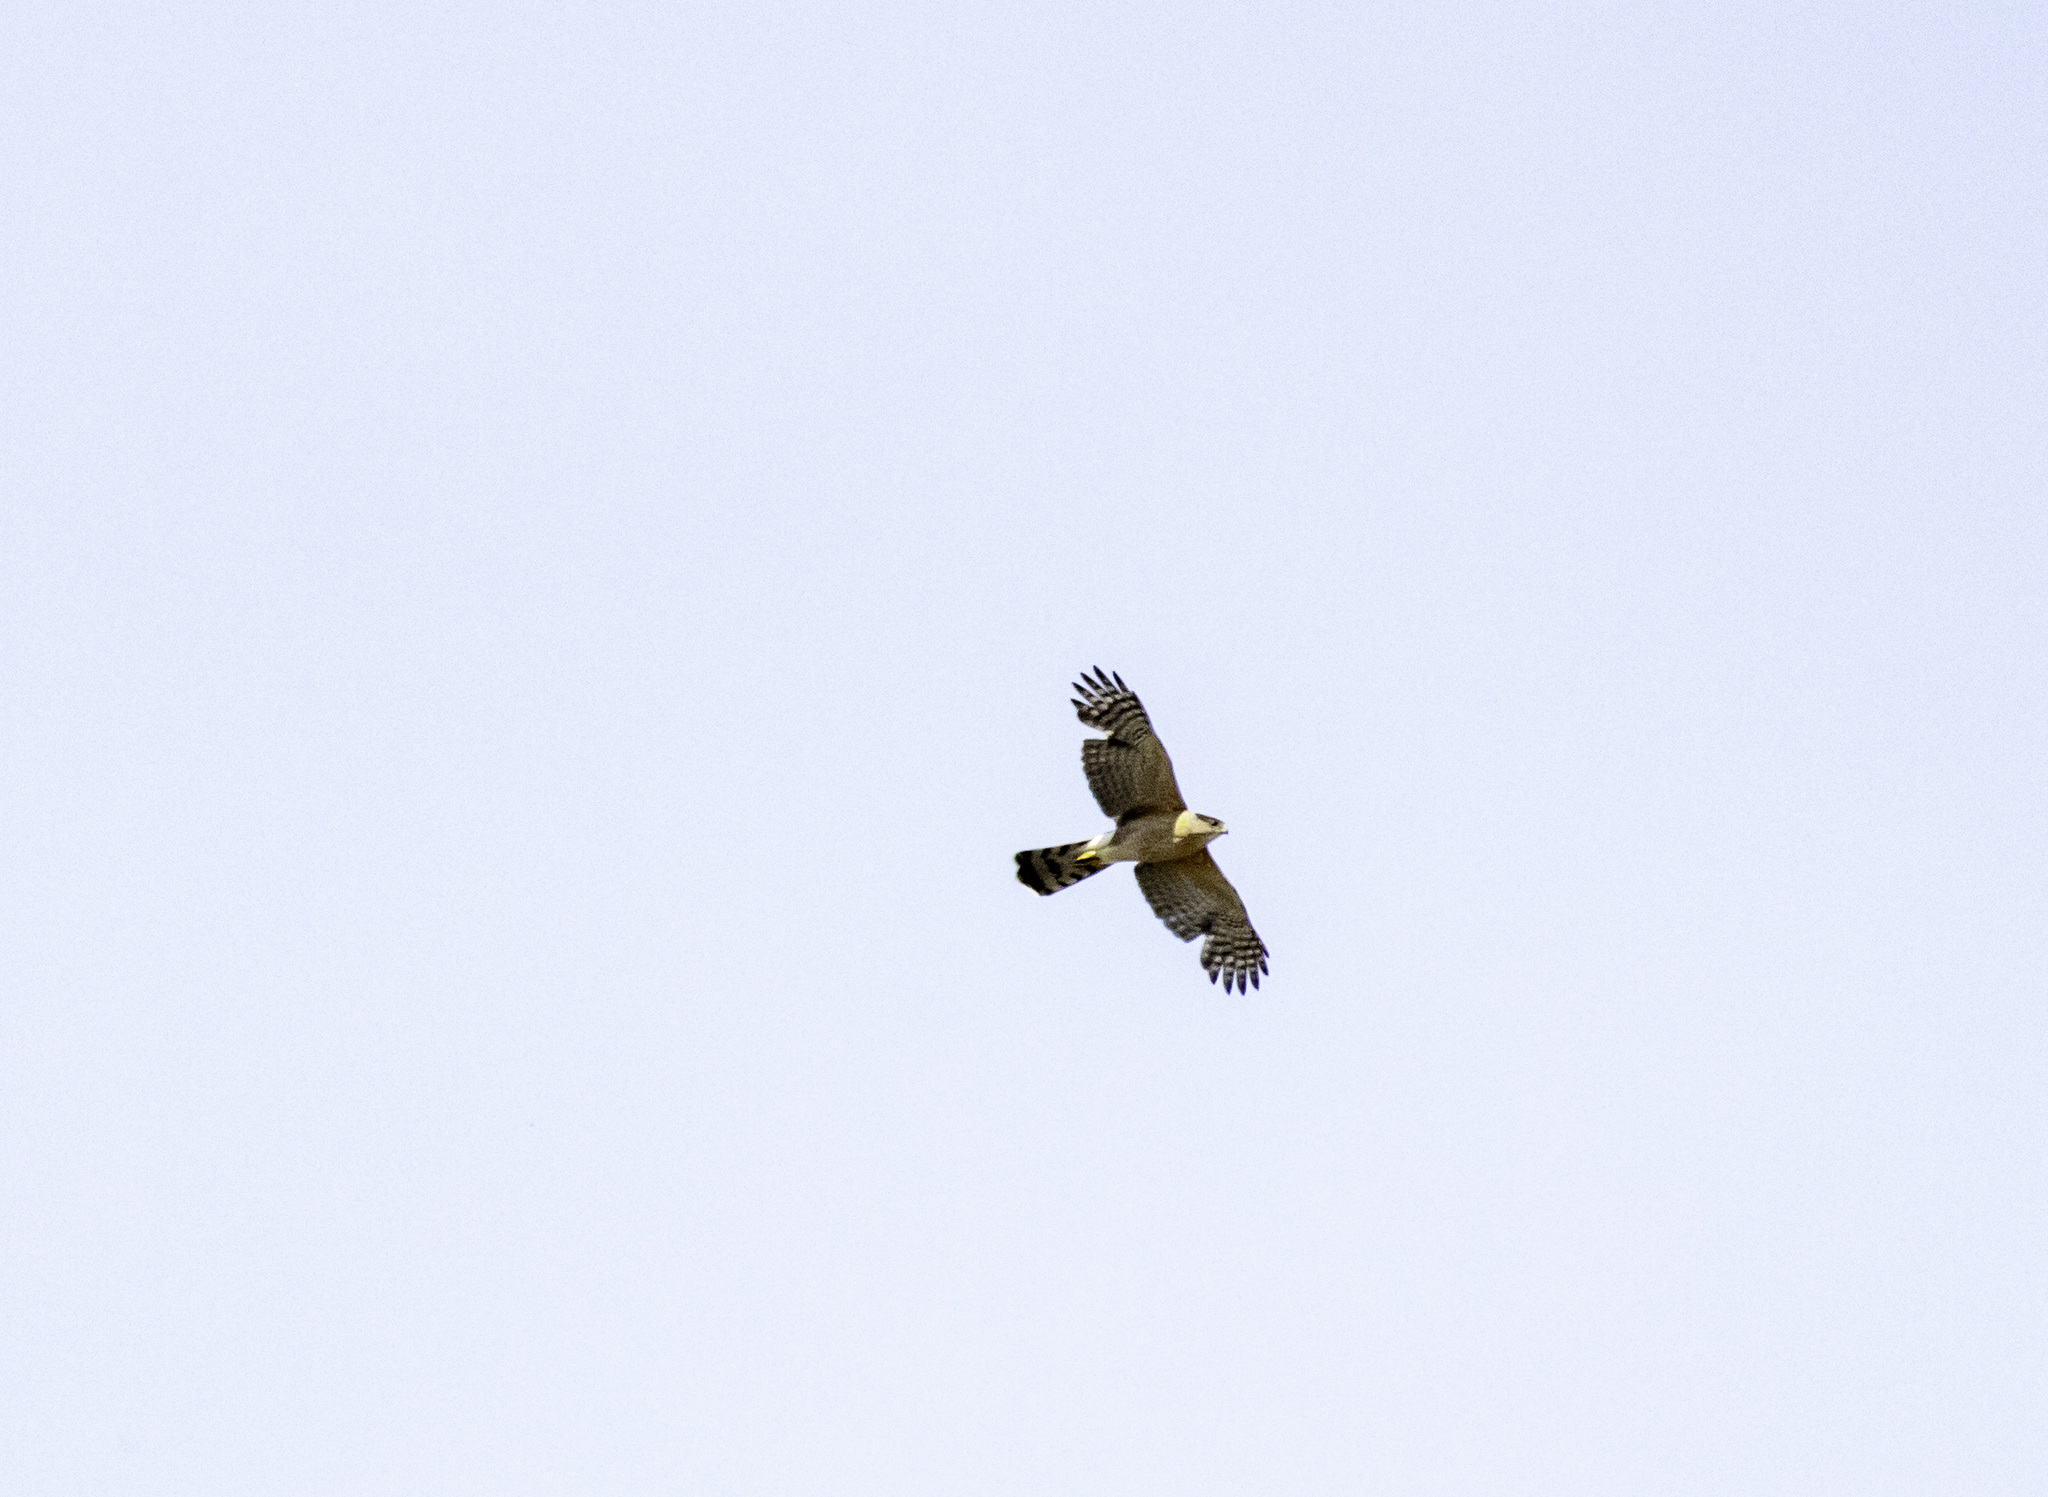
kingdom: Animalia
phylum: Chordata
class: Aves
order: Accipitriformes
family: Accipitridae
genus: Accipiter
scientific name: Accipiter cooperii
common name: Cooper's hawk
